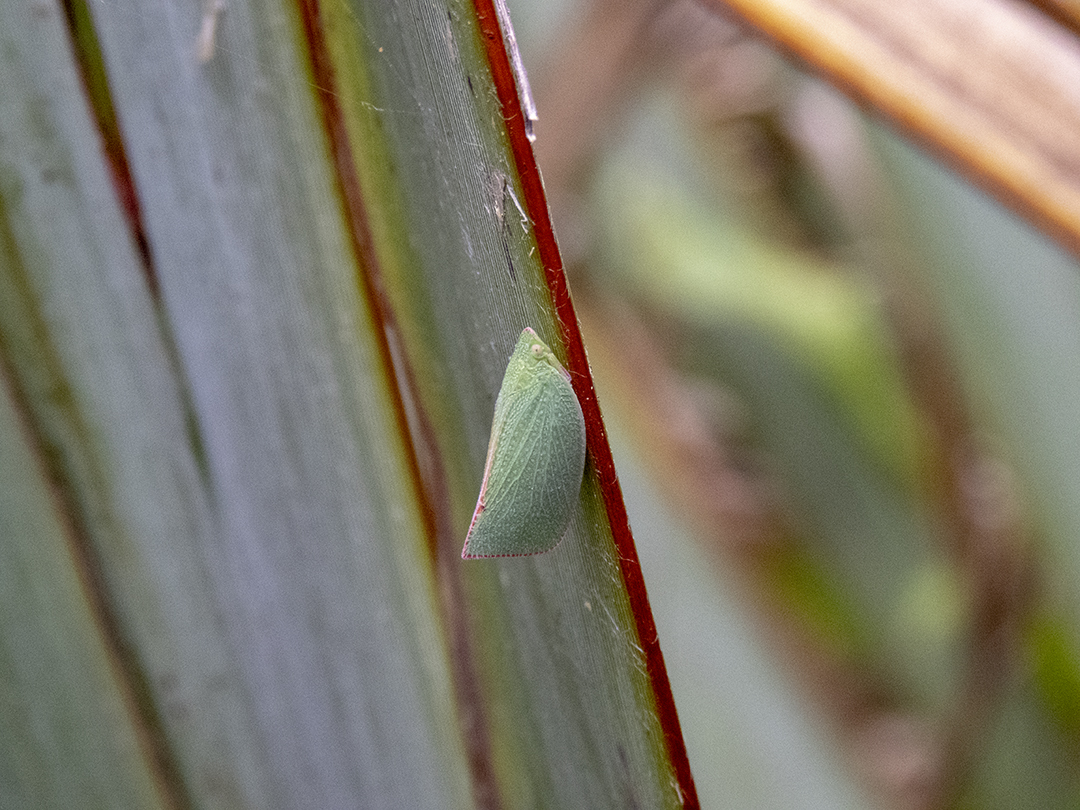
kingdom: Animalia
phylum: Arthropoda
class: Insecta
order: Hemiptera
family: Flatidae
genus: Siphanta
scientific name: Siphanta acuta
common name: Torpedo bug
